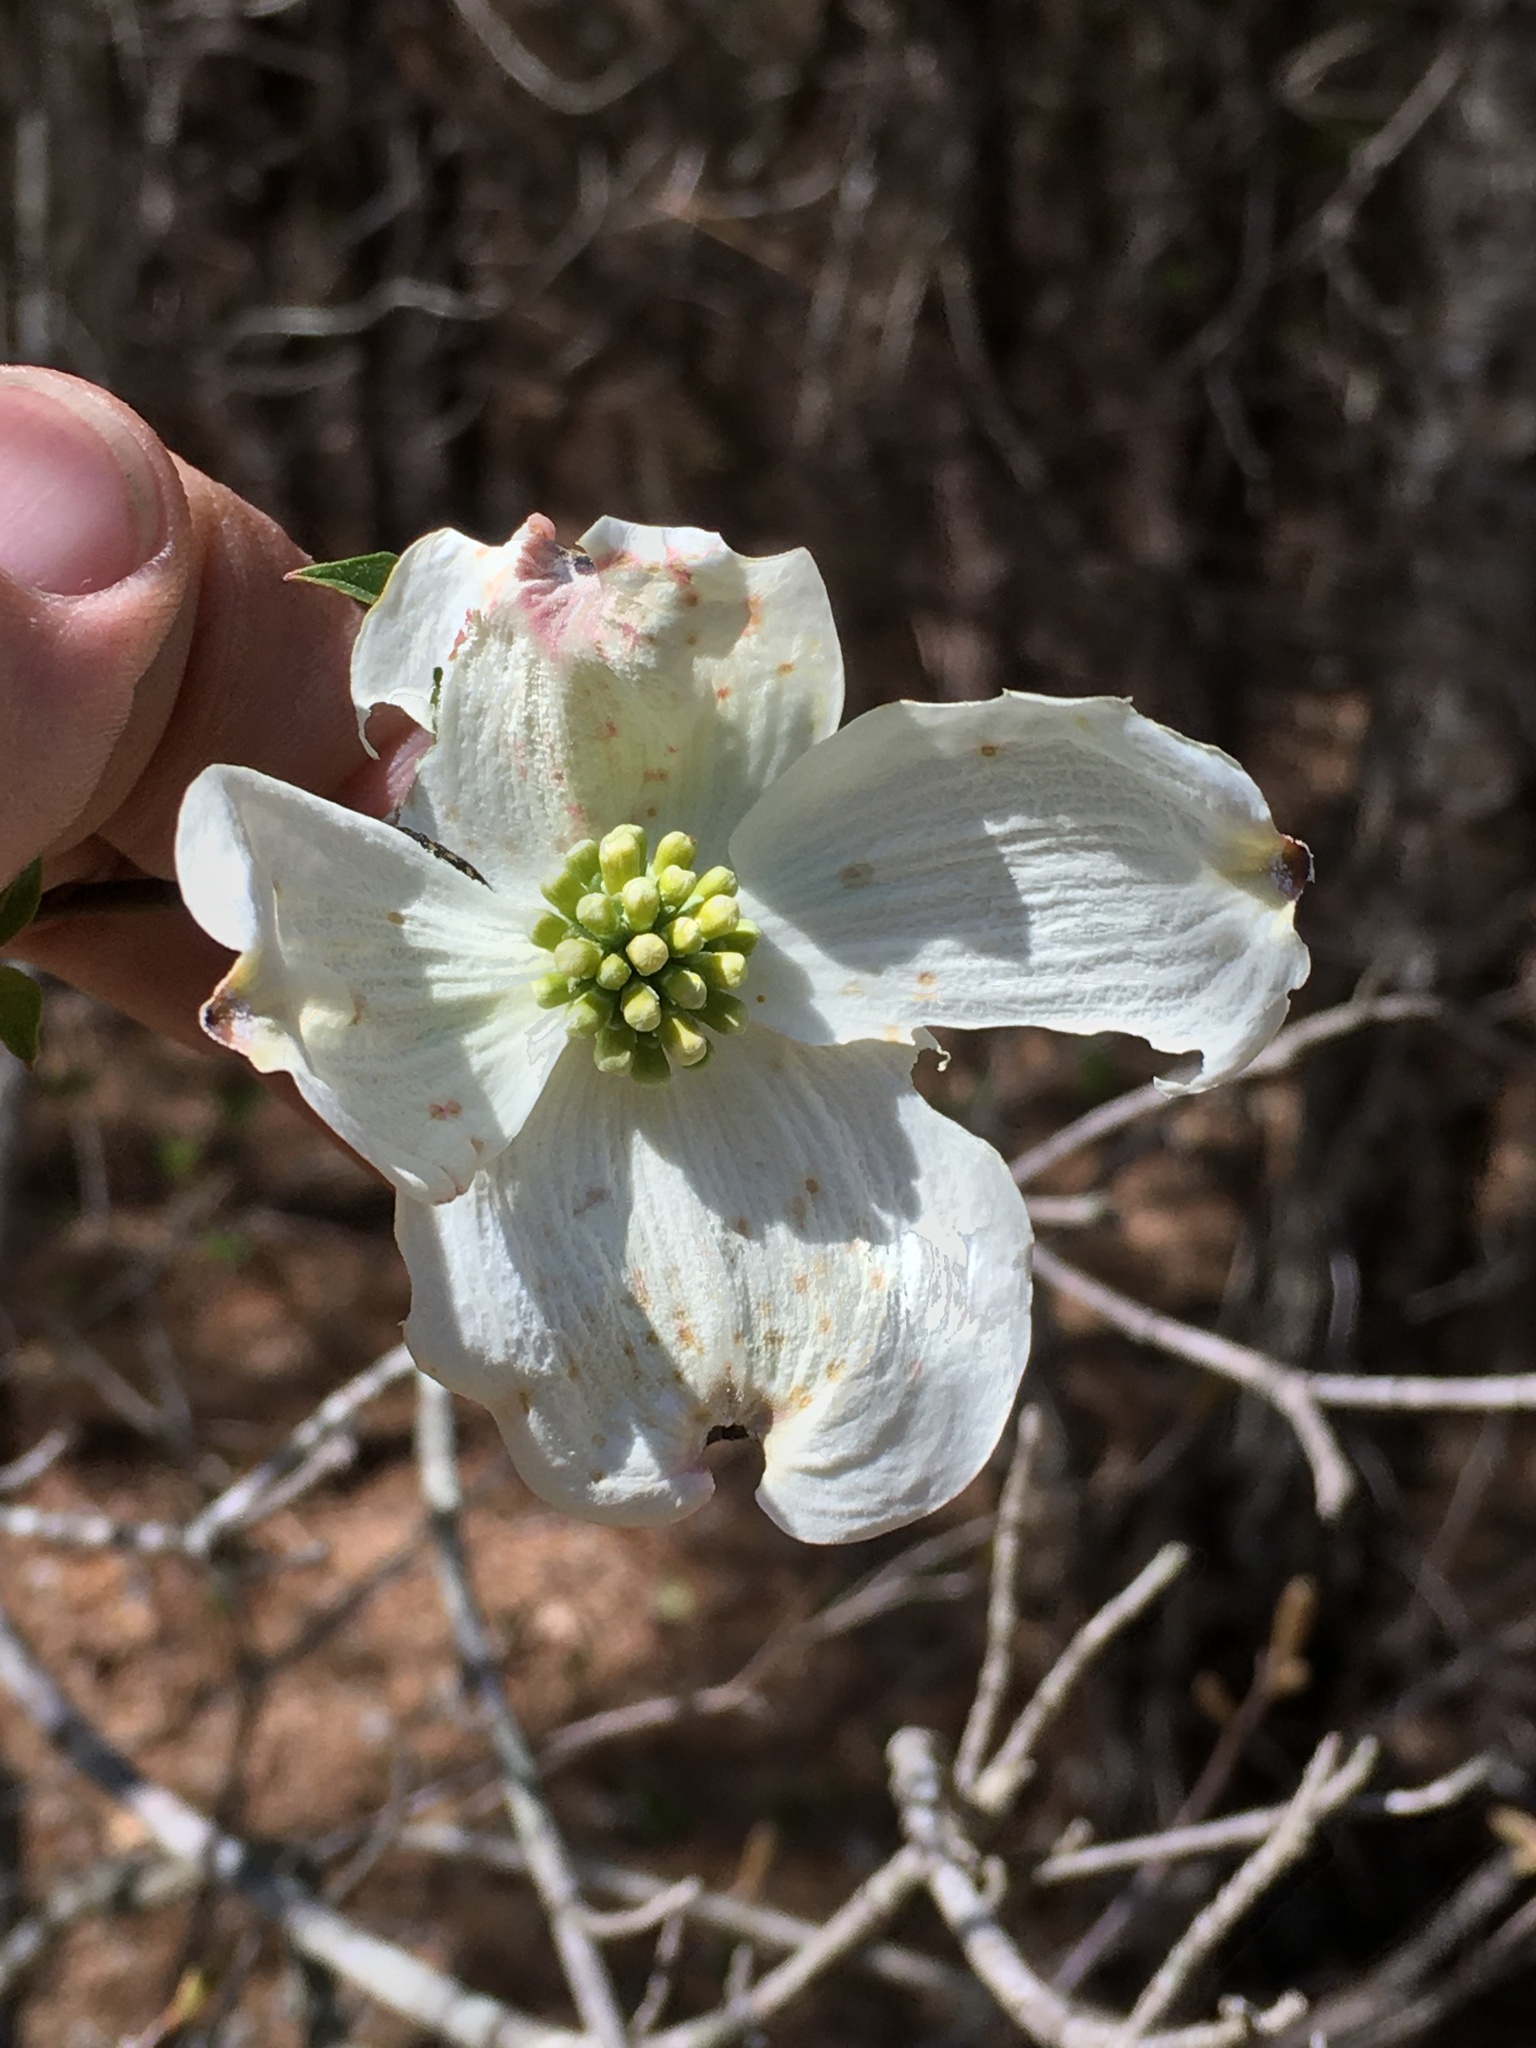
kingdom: Plantae
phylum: Tracheophyta
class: Magnoliopsida
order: Cornales
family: Cornaceae
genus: Cornus
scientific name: Cornus florida
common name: Flowering dogwood
